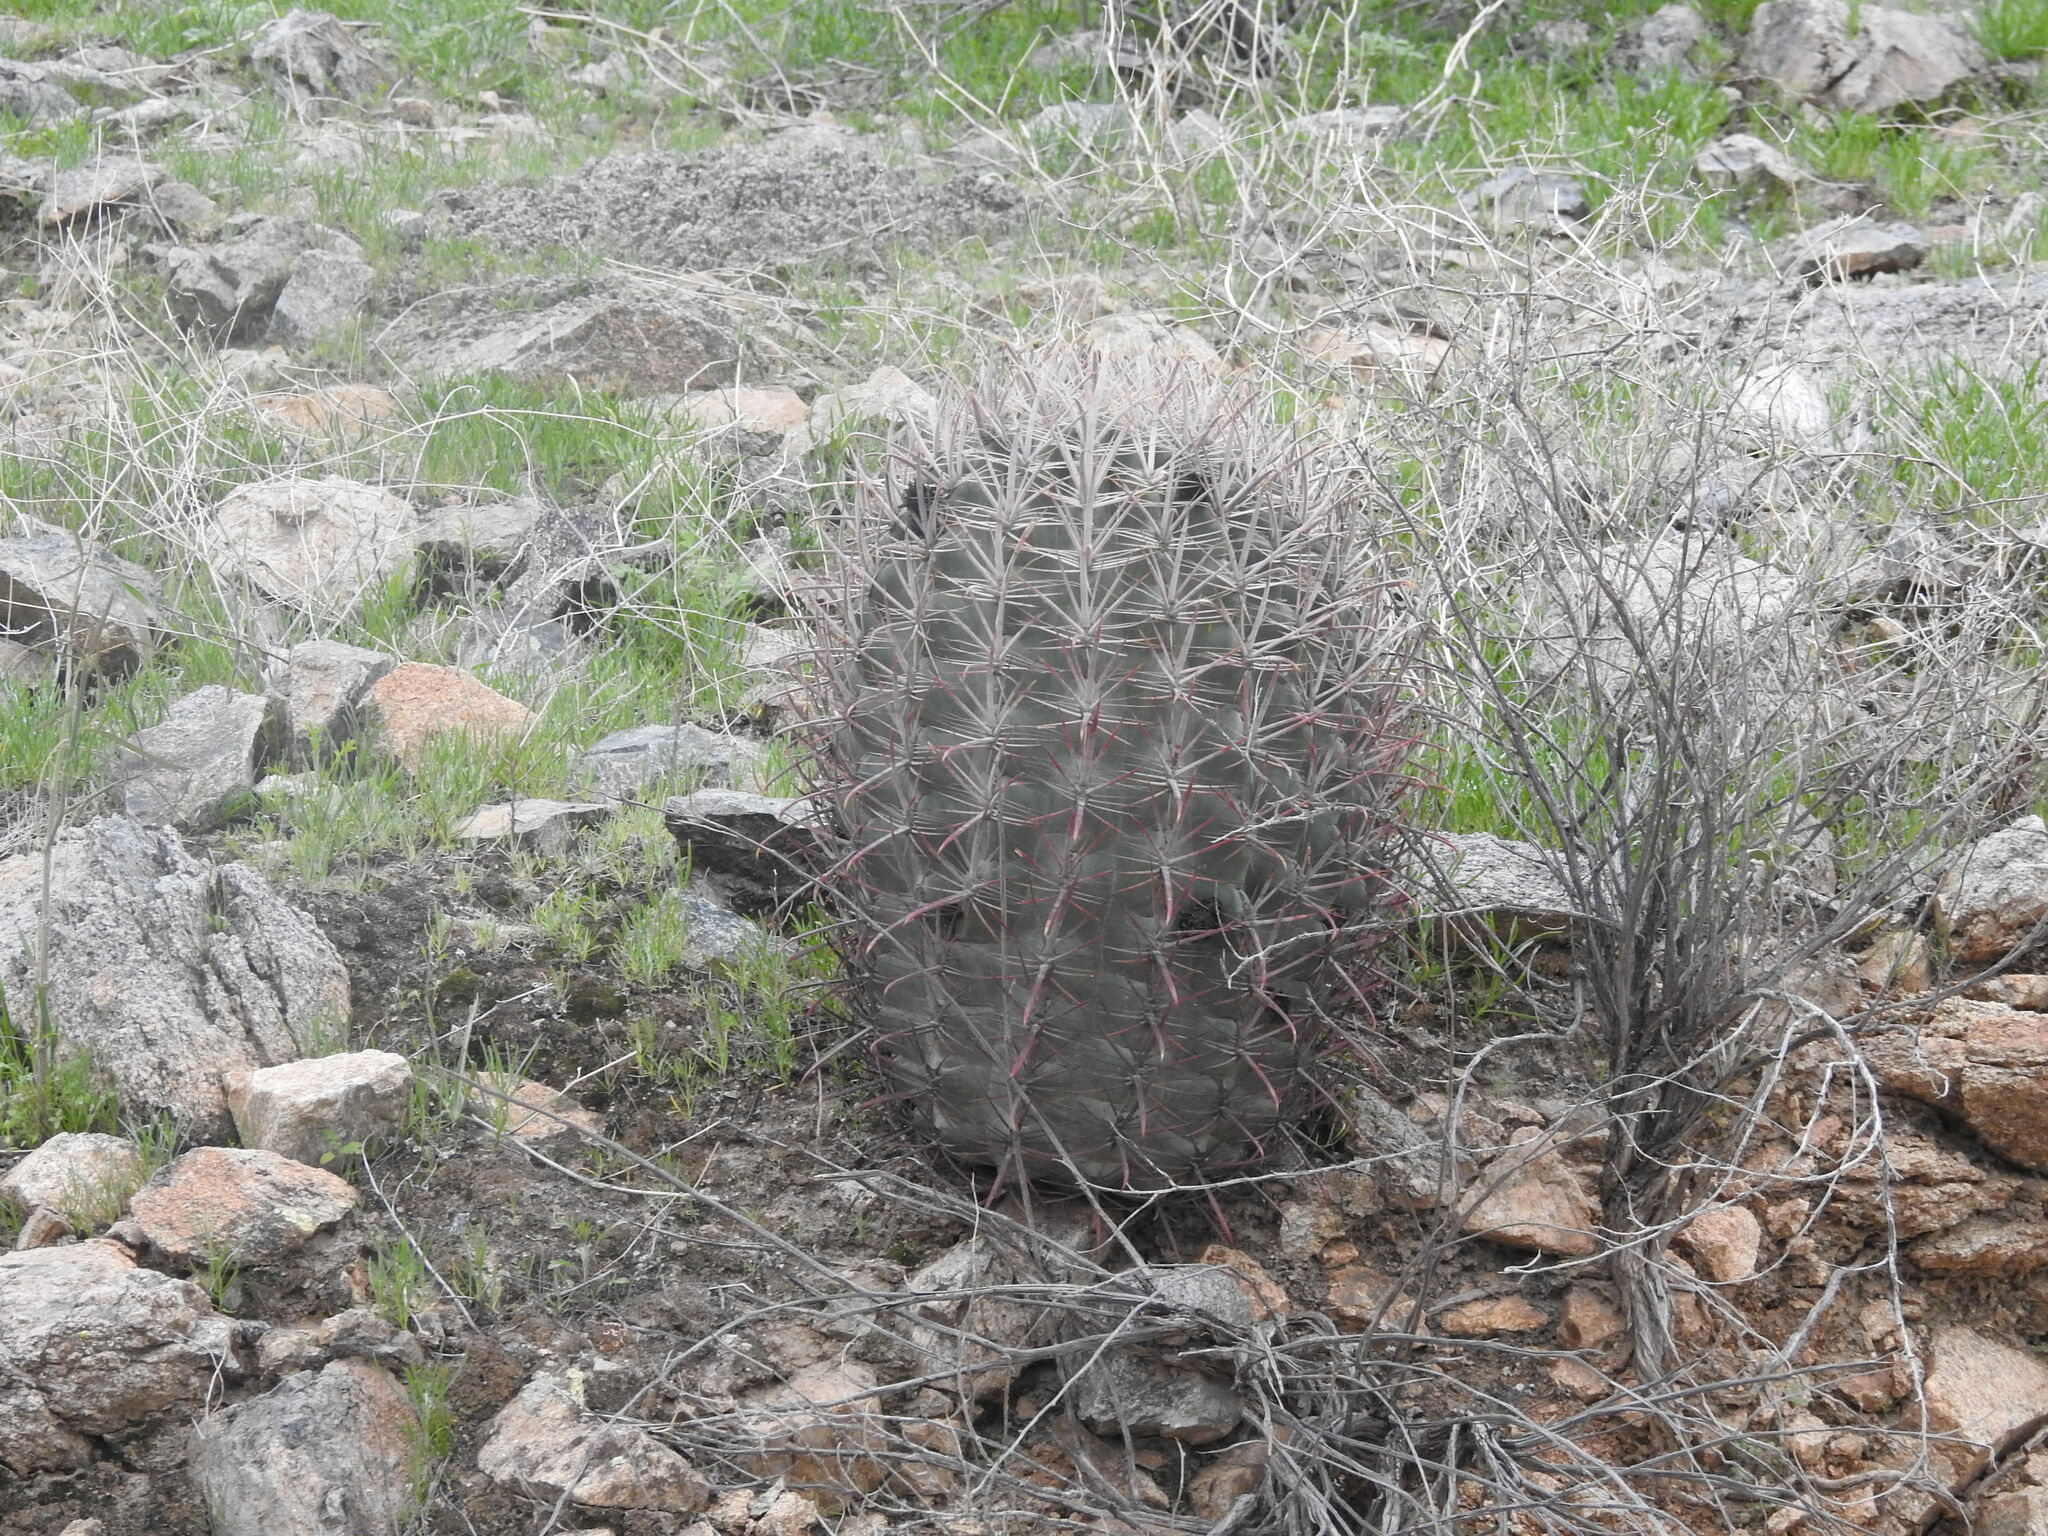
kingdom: Plantae
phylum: Tracheophyta
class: Magnoliopsida
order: Caryophyllales
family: Cactaceae
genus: Ferocactus
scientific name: Ferocactus cylindraceus
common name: California barrel cactus
